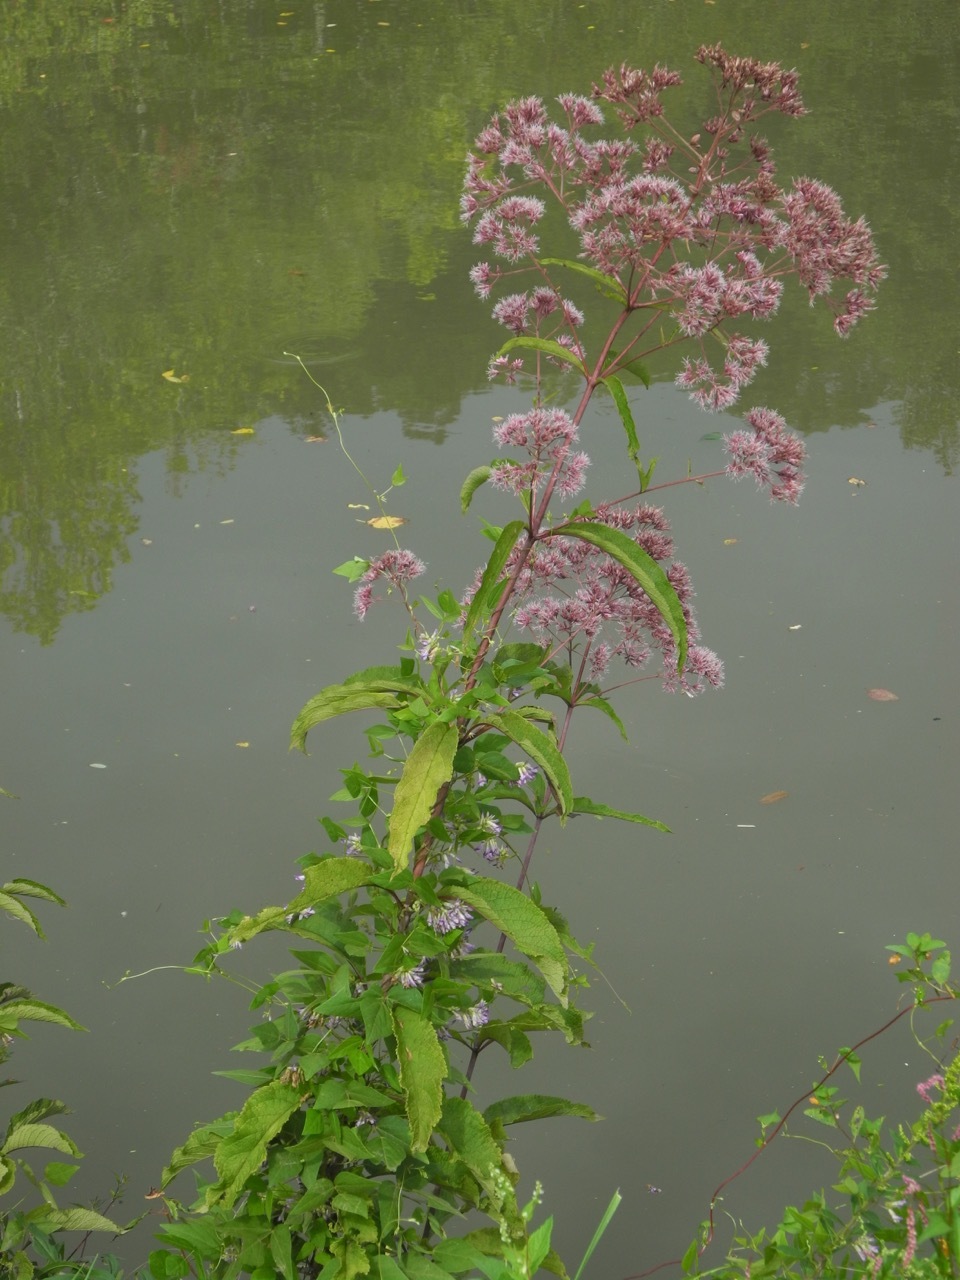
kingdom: Plantae
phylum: Tracheophyta
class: Magnoliopsida
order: Fabales
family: Fabaceae
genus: Amphicarpaea
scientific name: Amphicarpaea bracteata
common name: American hog peanut
